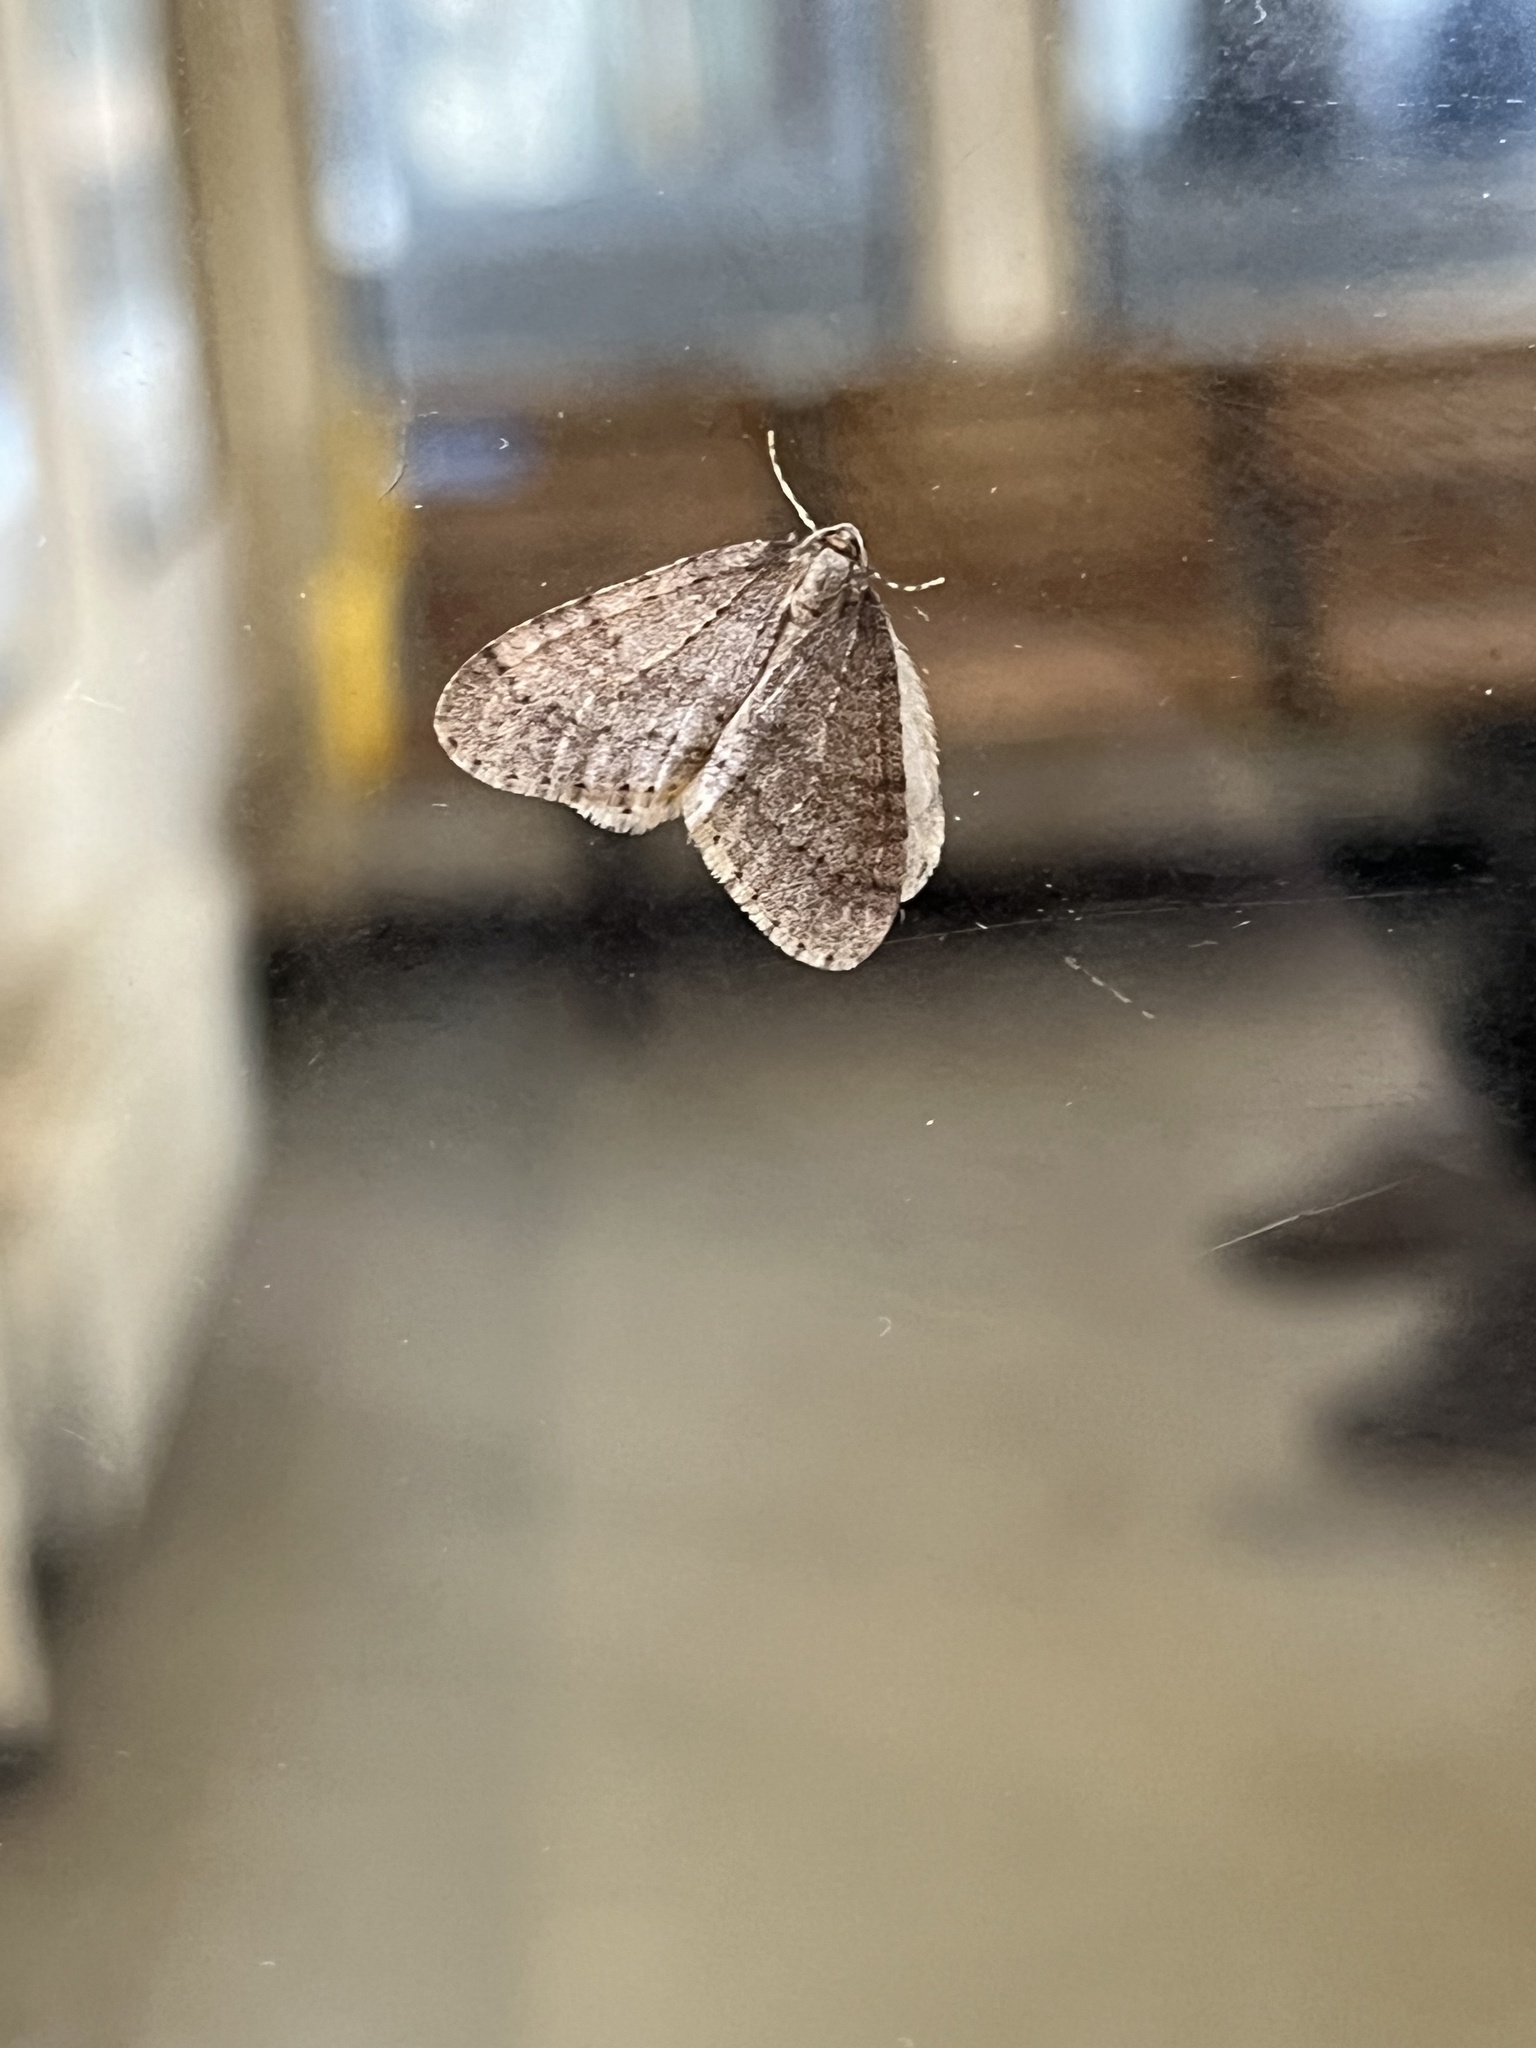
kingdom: Animalia
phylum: Arthropoda
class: Insecta
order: Lepidoptera
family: Geometridae
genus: Operophtera
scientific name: Operophtera brumata
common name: Winter moth
